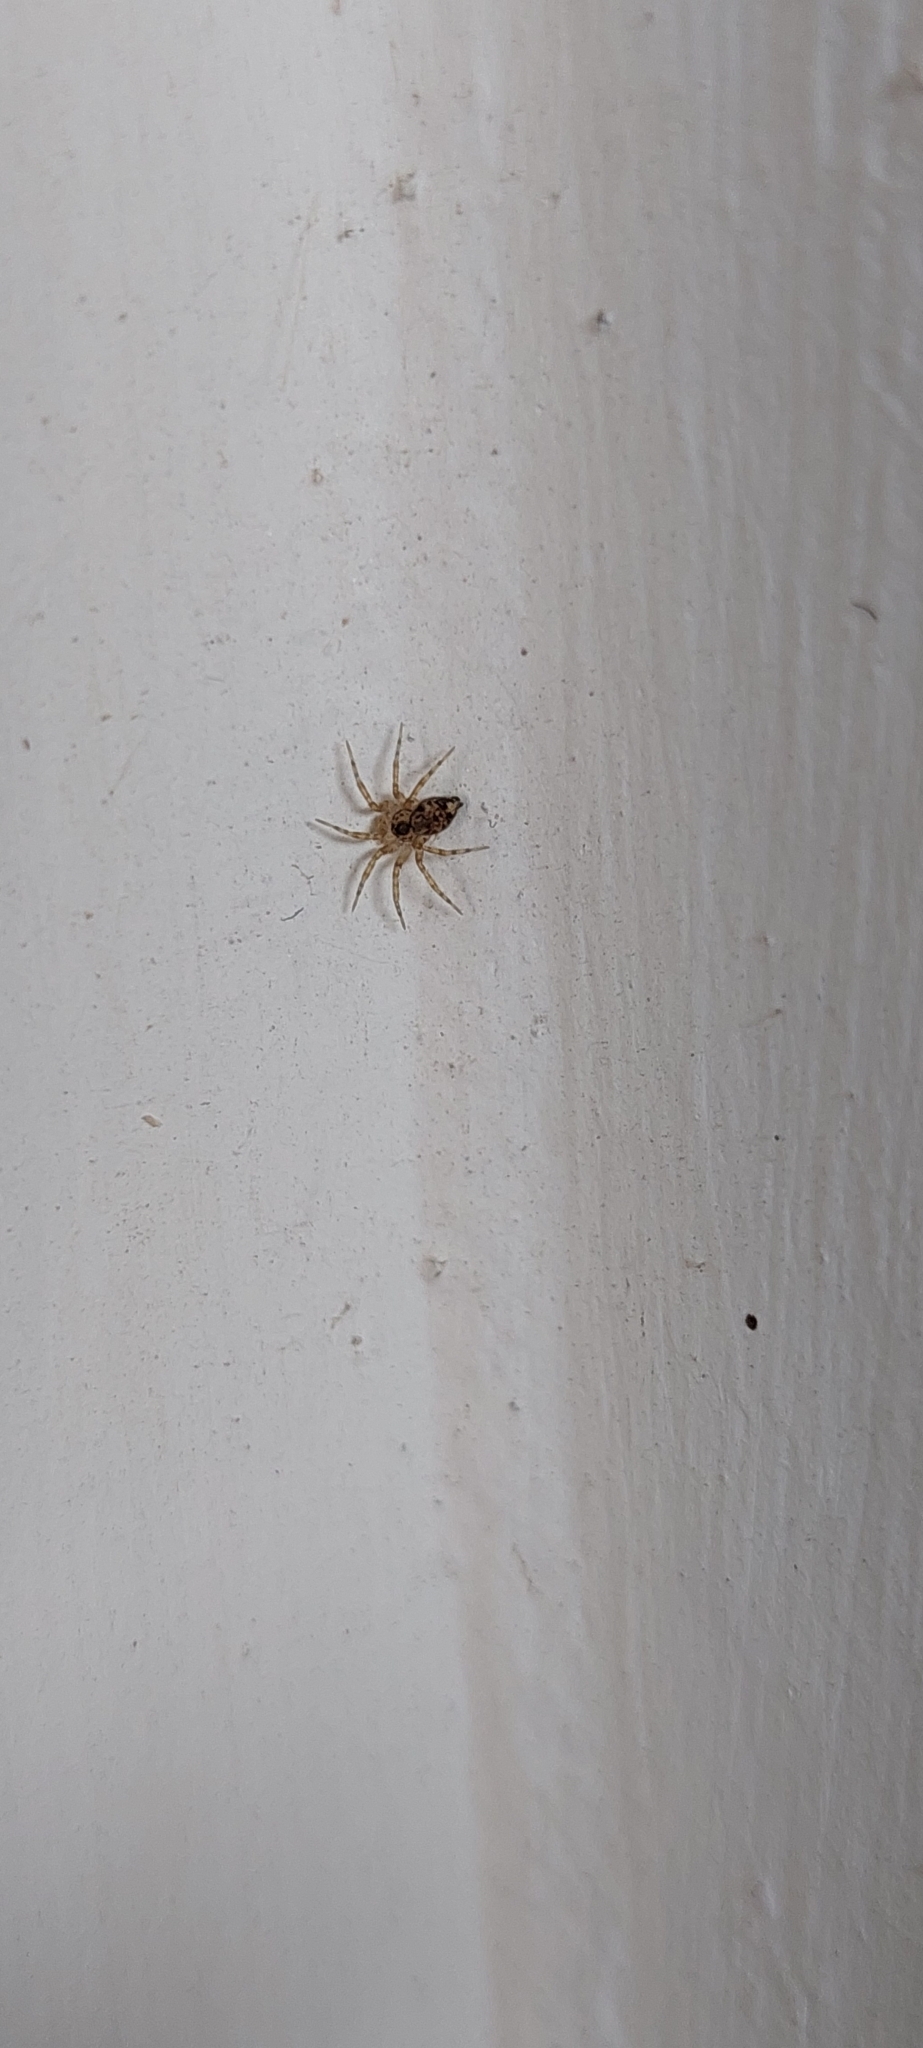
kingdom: Animalia
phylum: Arthropoda
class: Arachnida
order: Araneae
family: Oecobiidae
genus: Oecobius
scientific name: Oecobius navus
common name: Flatmesh weaver
